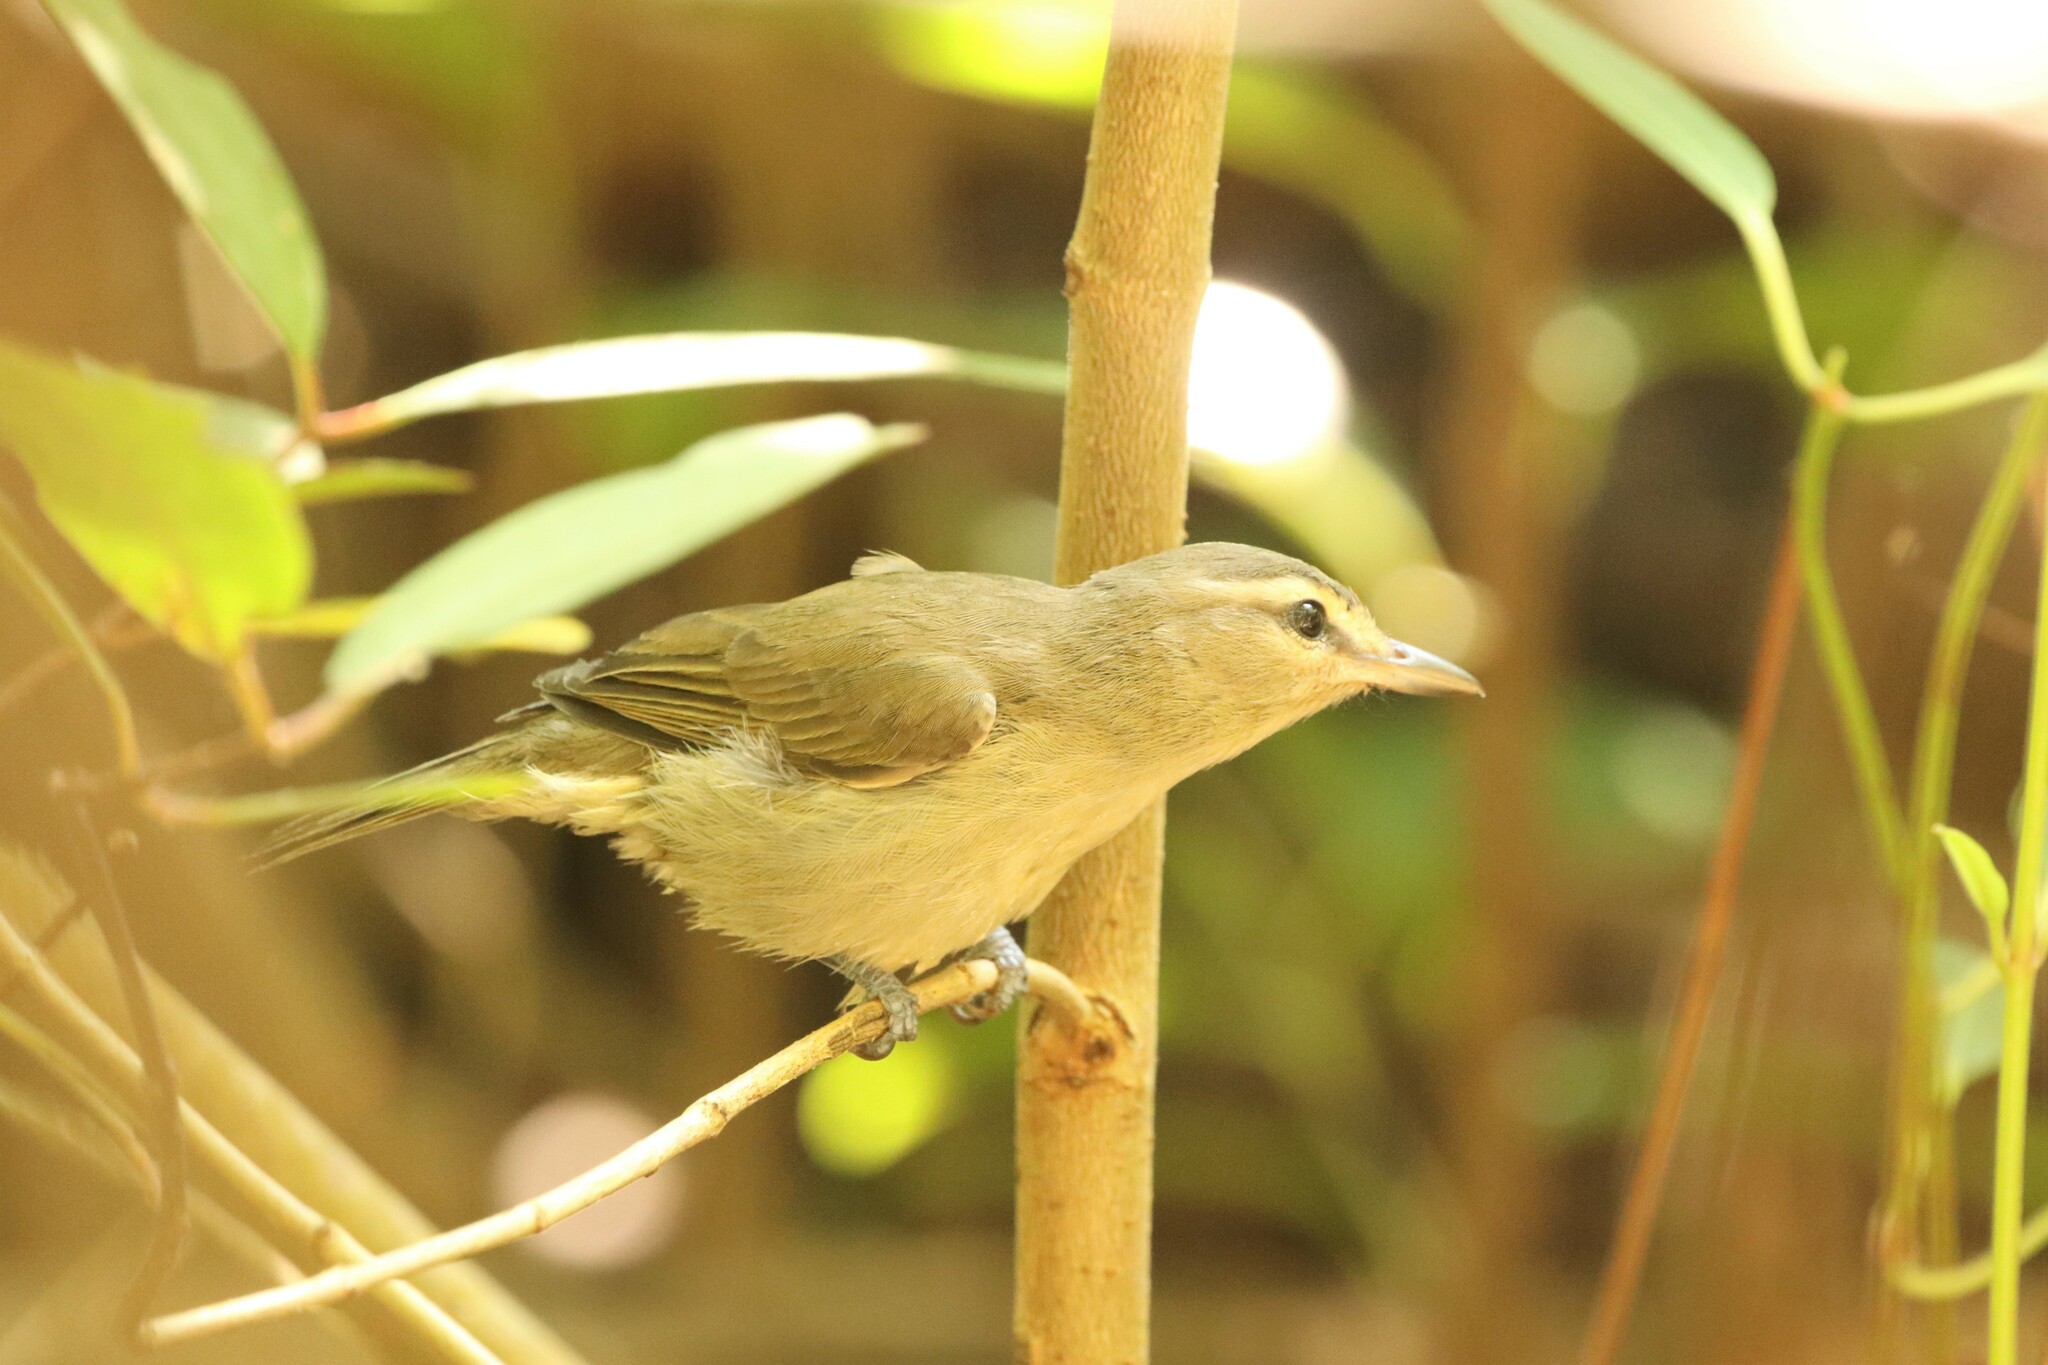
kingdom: Animalia
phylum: Chordata
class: Aves
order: Passeriformes
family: Vireonidae
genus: Vireo
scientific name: Vireo magister
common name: Yucatan vireo
